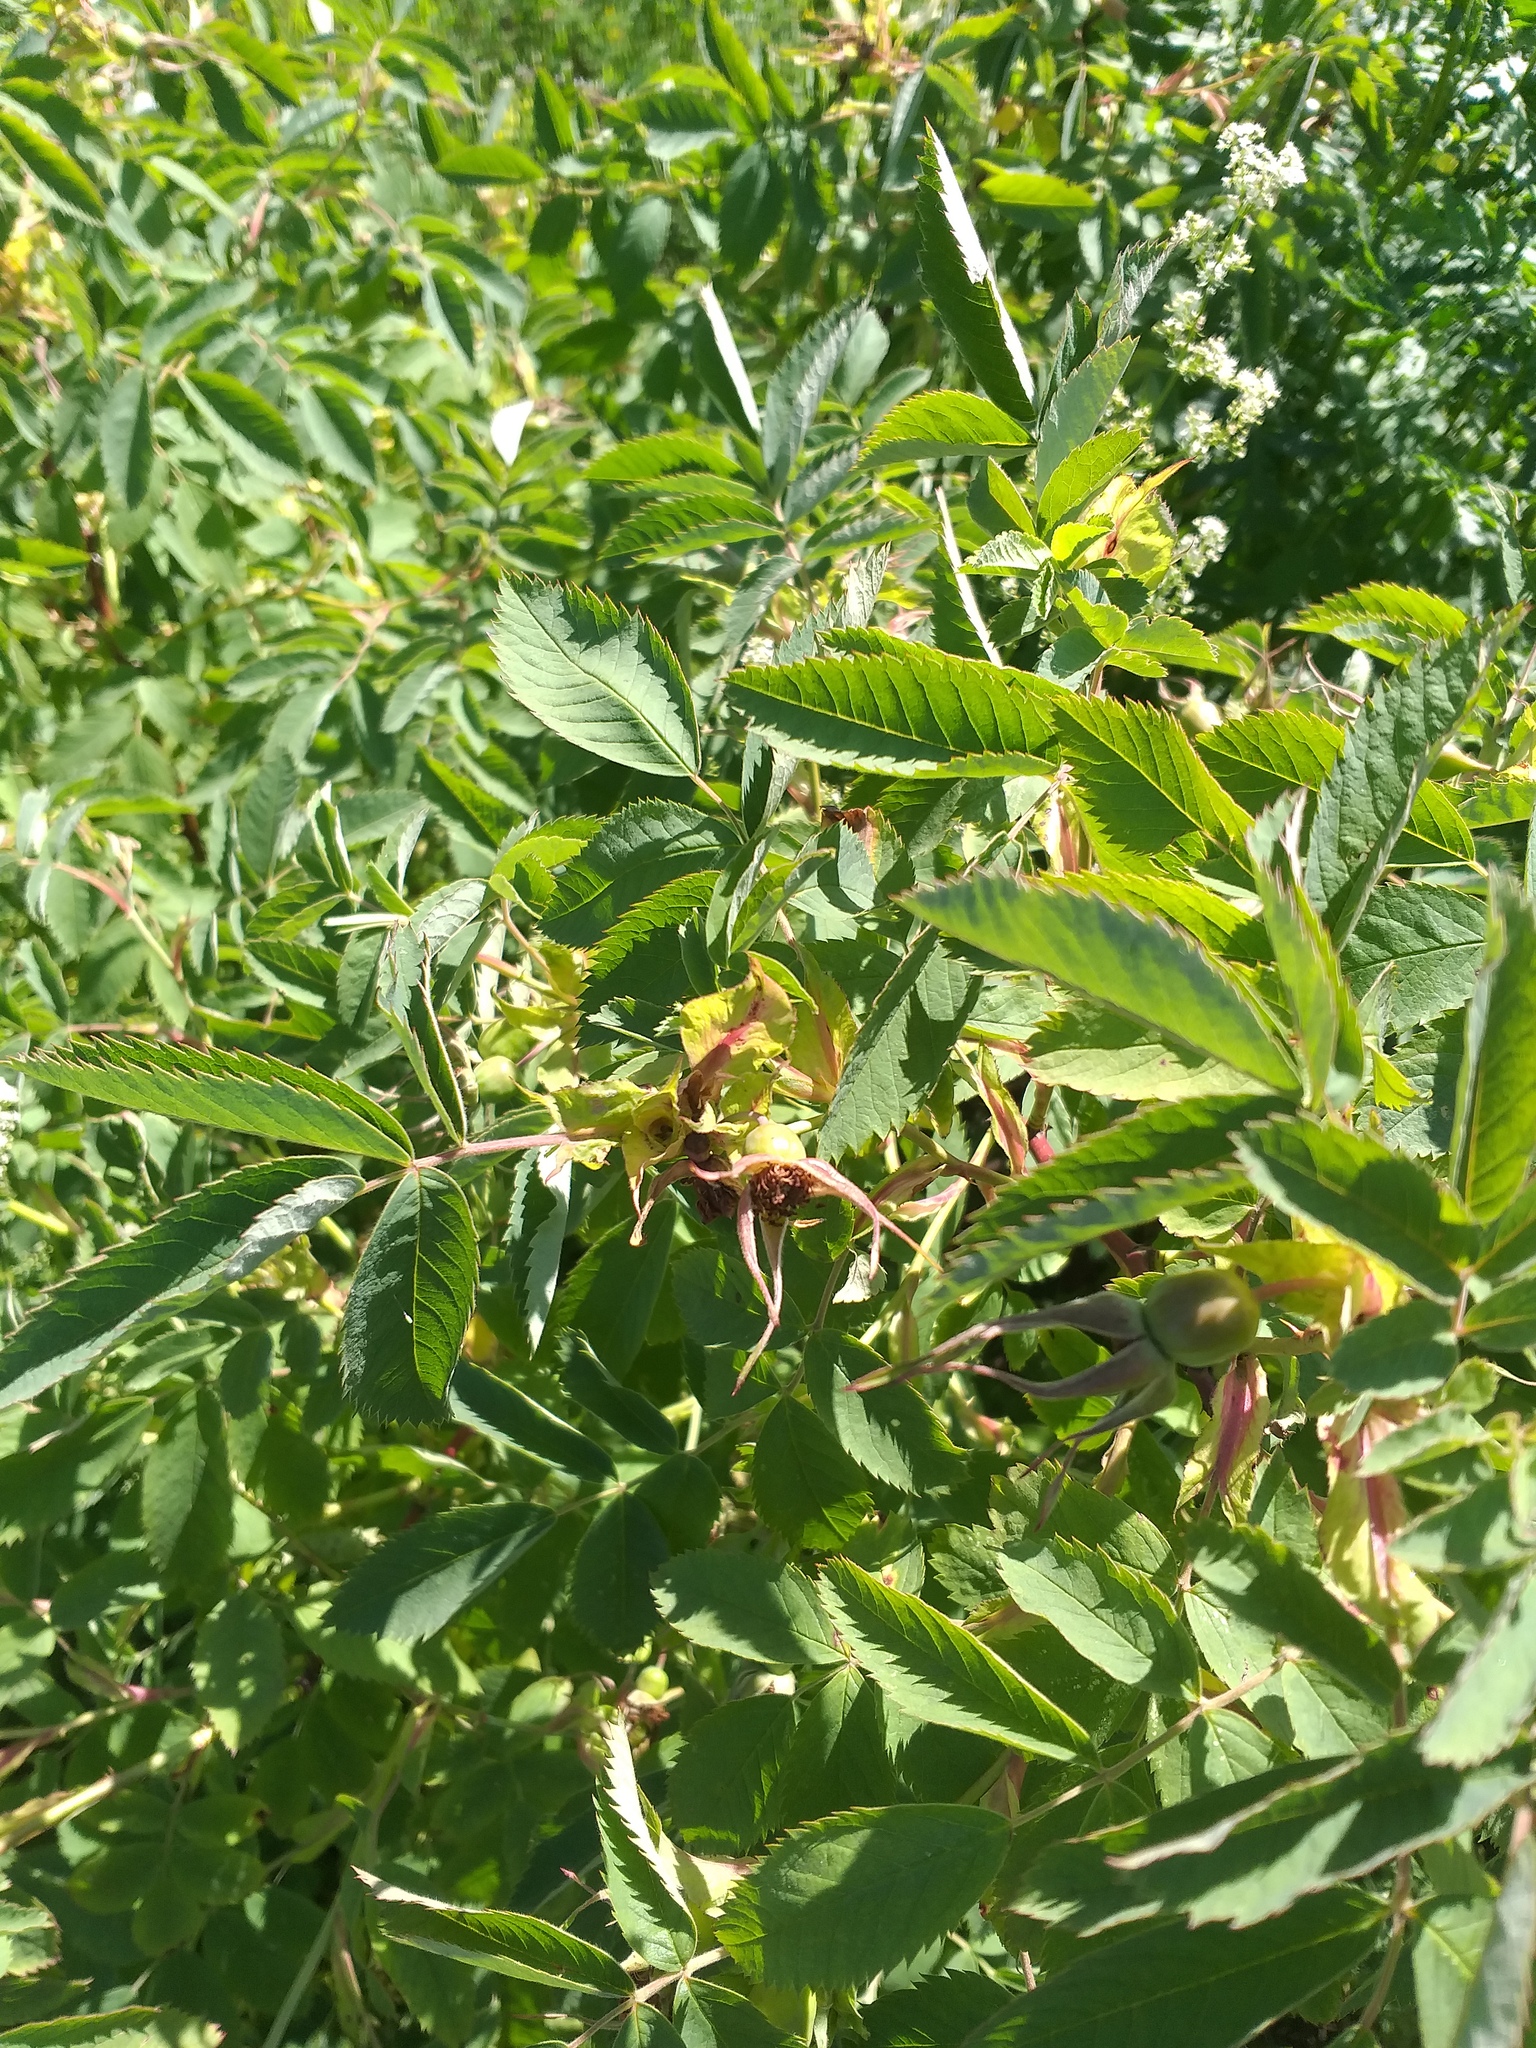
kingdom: Plantae
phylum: Tracheophyta
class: Magnoliopsida
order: Rosales
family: Rosaceae
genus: Rosa
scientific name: Rosa majalis
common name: Cinnamon rose
